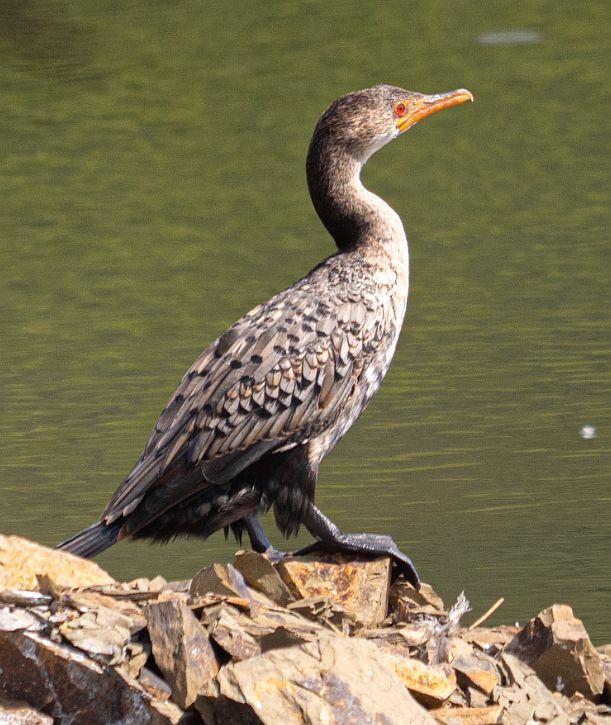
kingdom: Animalia
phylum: Chordata
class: Aves
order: Suliformes
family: Phalacrocoracidae
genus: Microcarbo
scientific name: Microcarbo africanus
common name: Long-tailed cormorant
